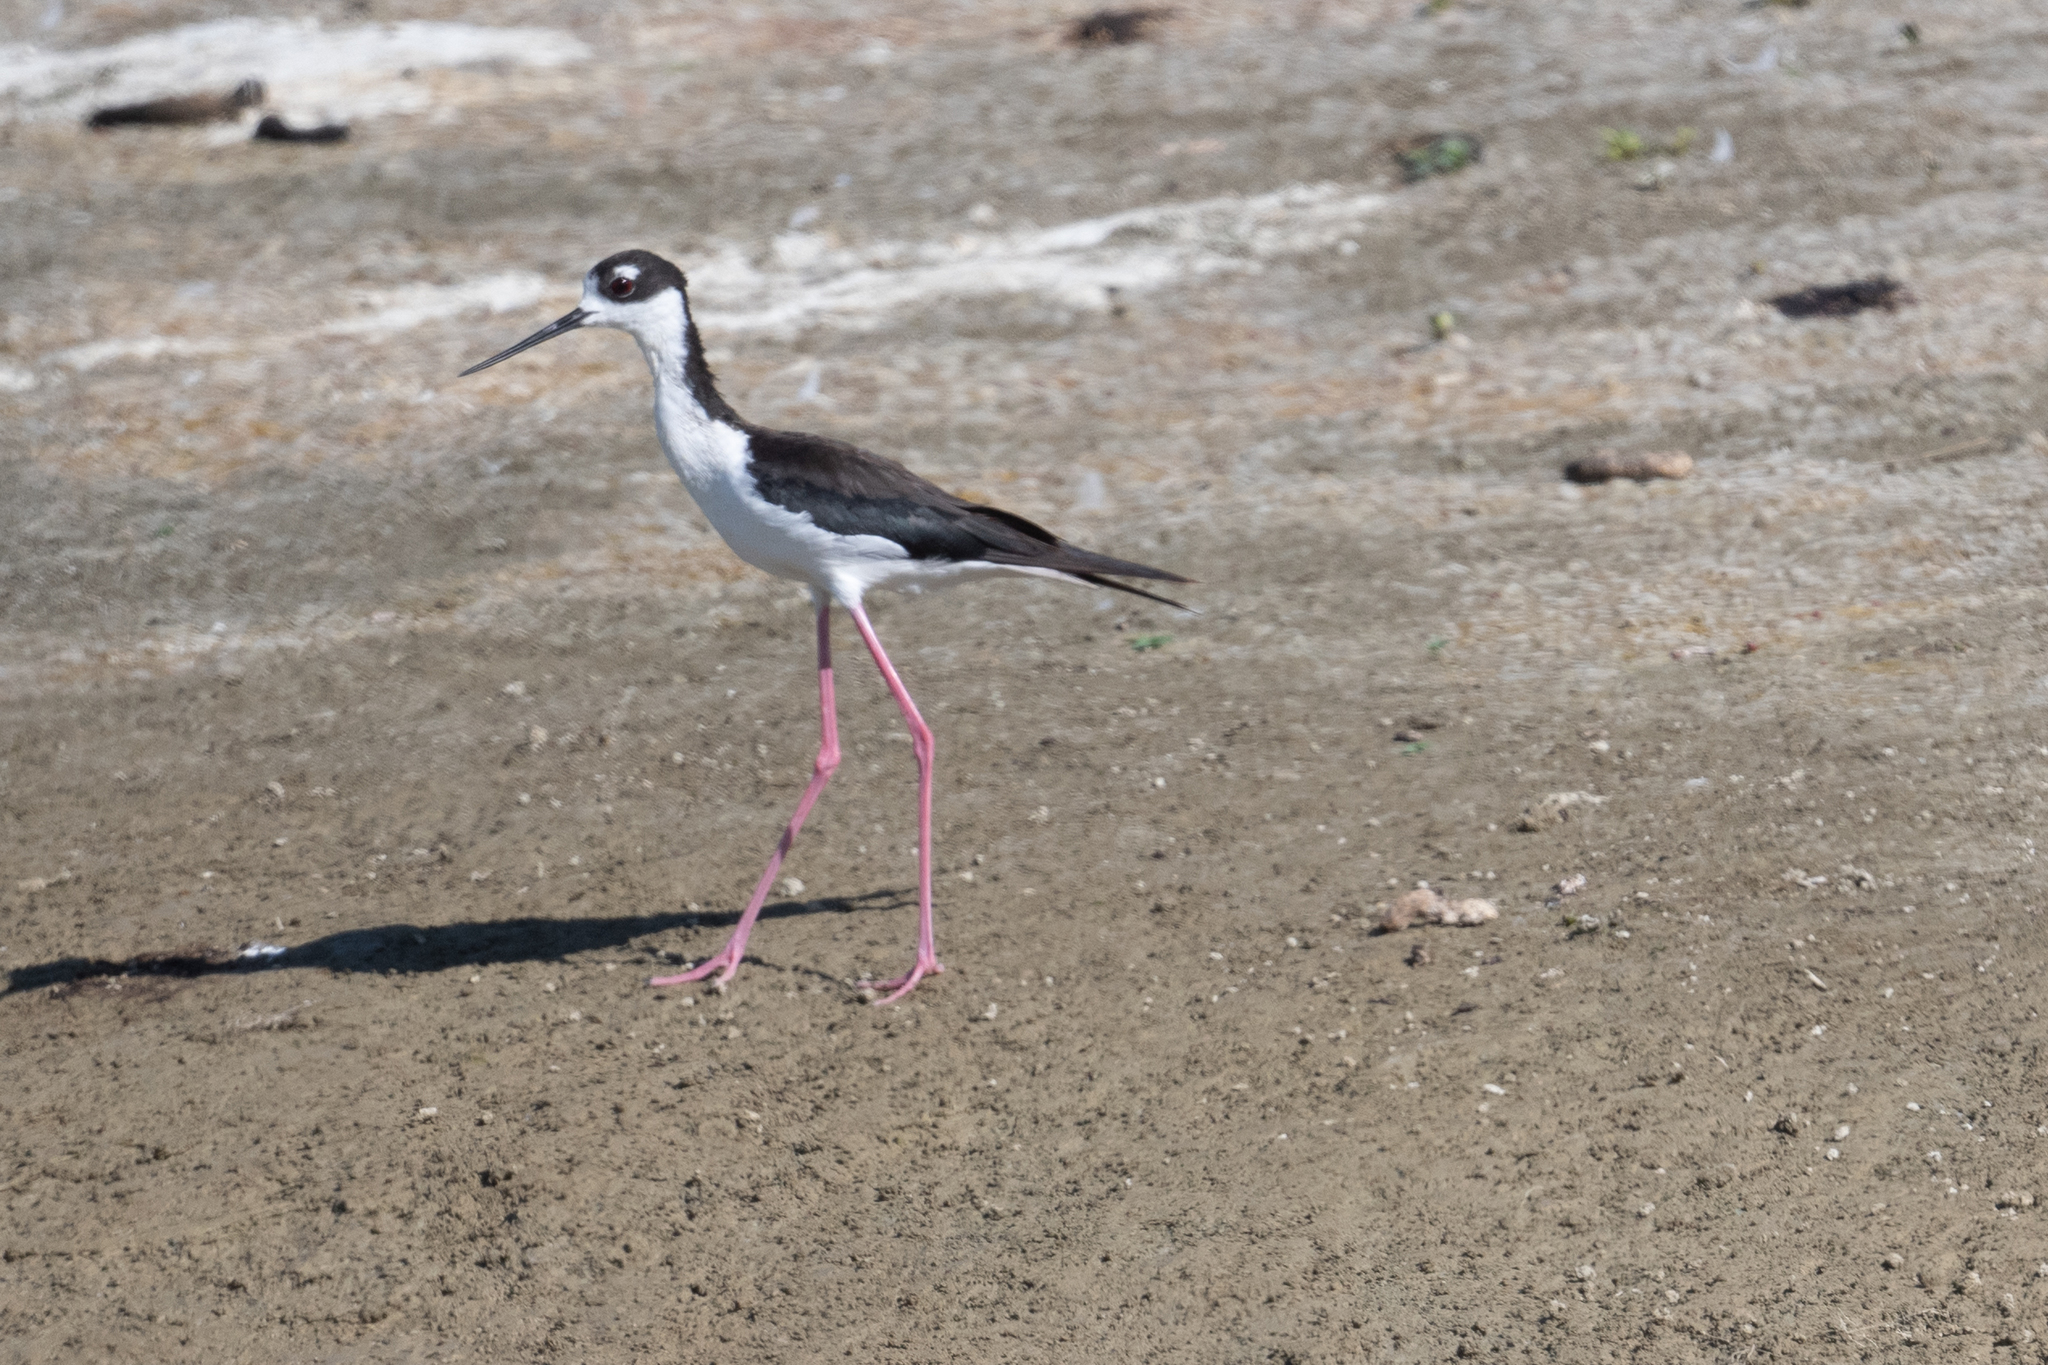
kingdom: Animalia
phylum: Chordata
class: Aves
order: Charadriiformes
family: Recurvirostridae
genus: Himantopus
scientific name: Himantopus mexicanus
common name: Black-necked stilt
